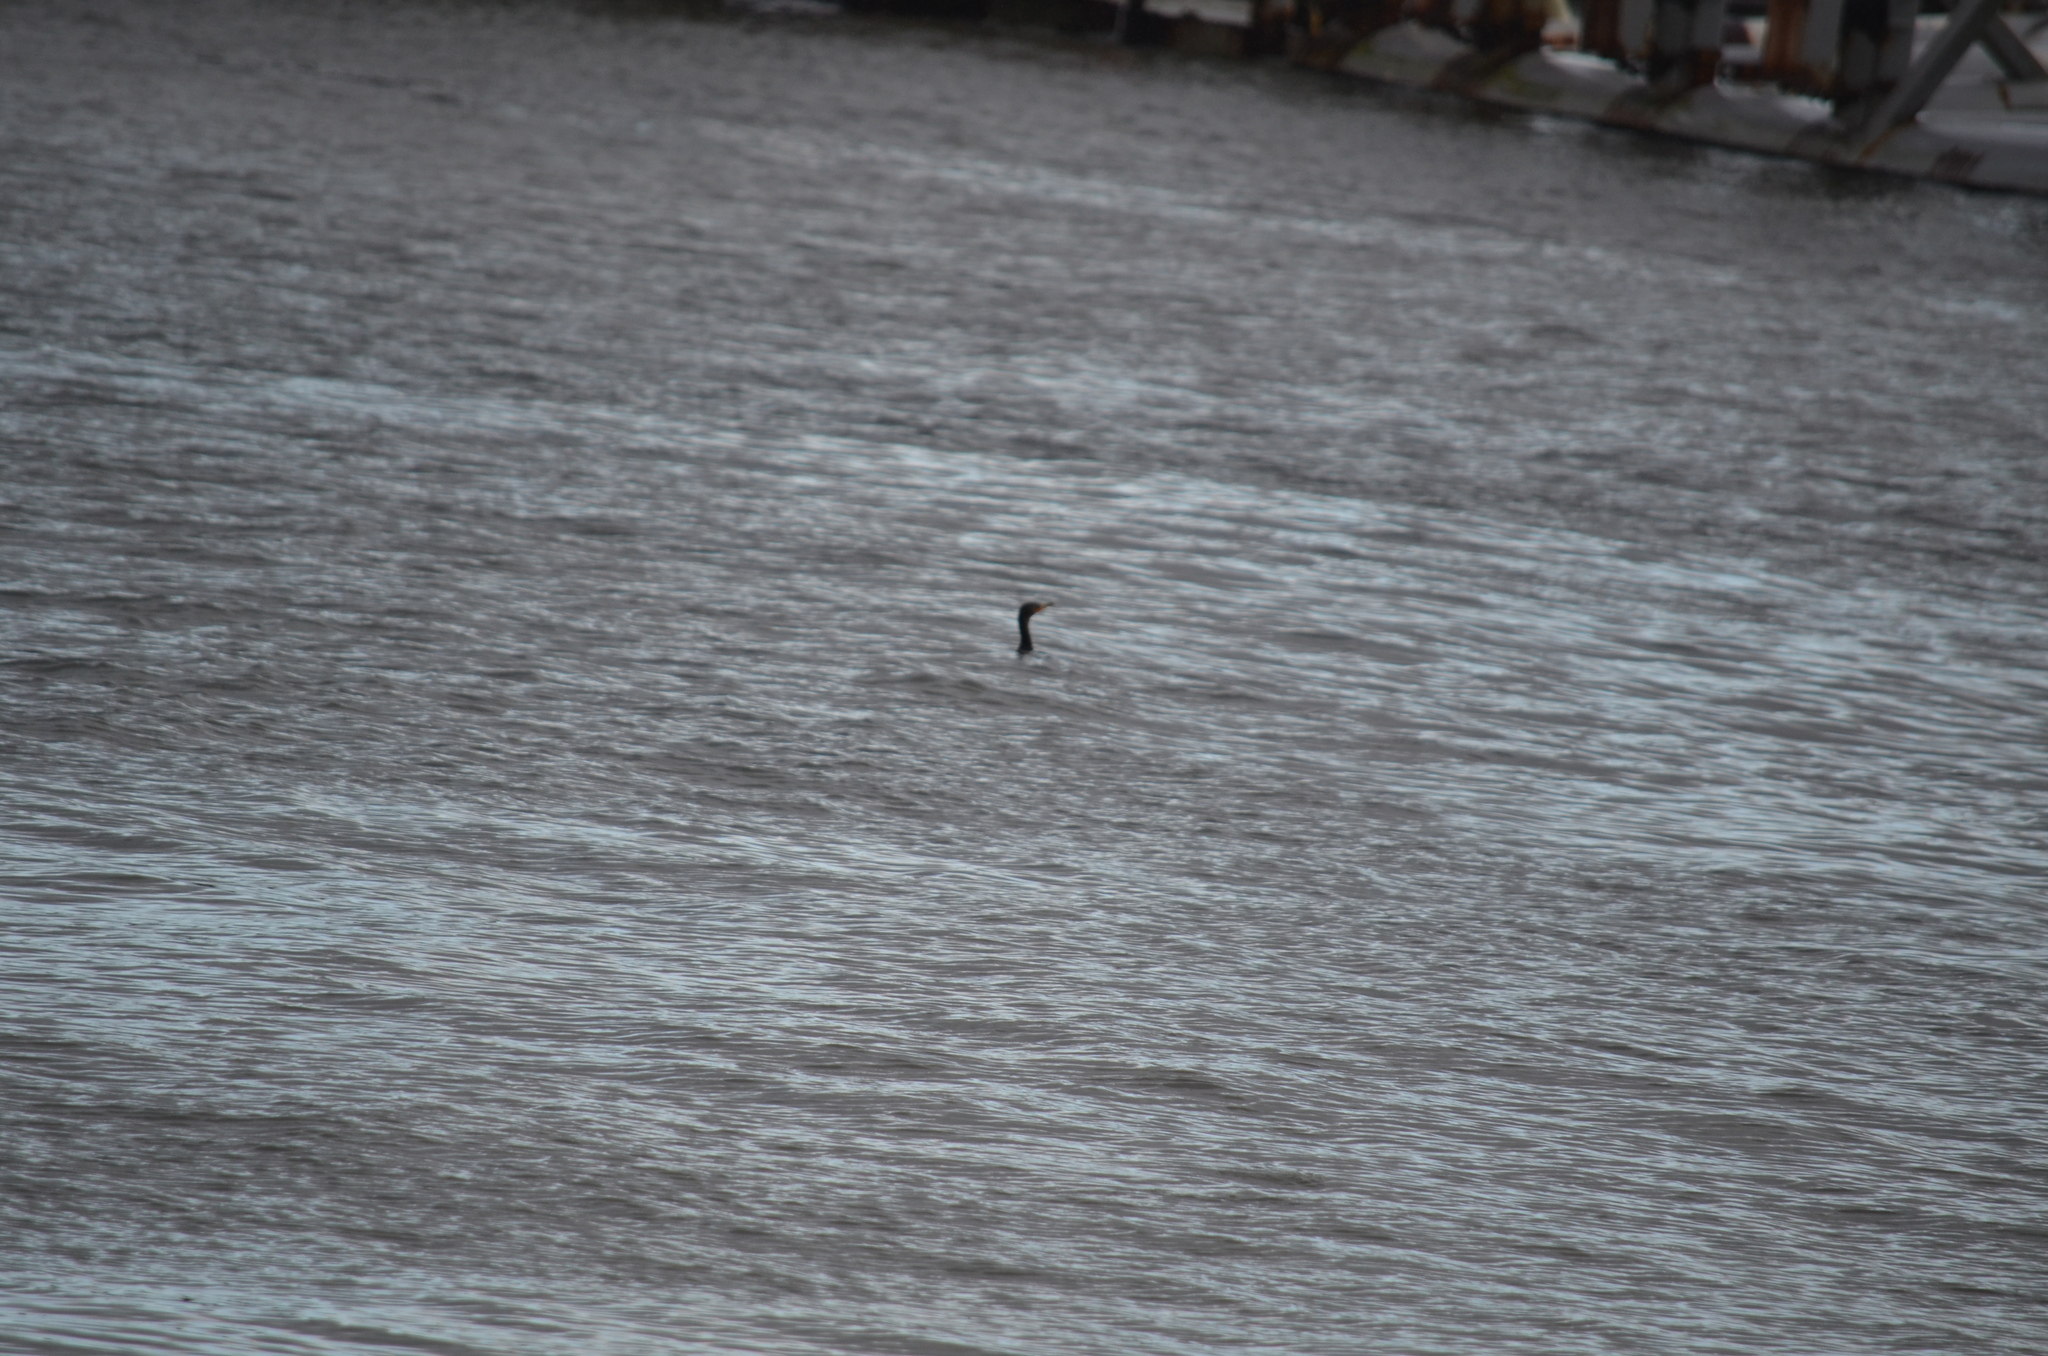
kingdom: Animalia
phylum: Chordata
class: Aves
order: Suliformes
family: Phalacrocoracidae
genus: Phalacrocorax
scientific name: Phalacrocorax auritus
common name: Double-crested cormorant
